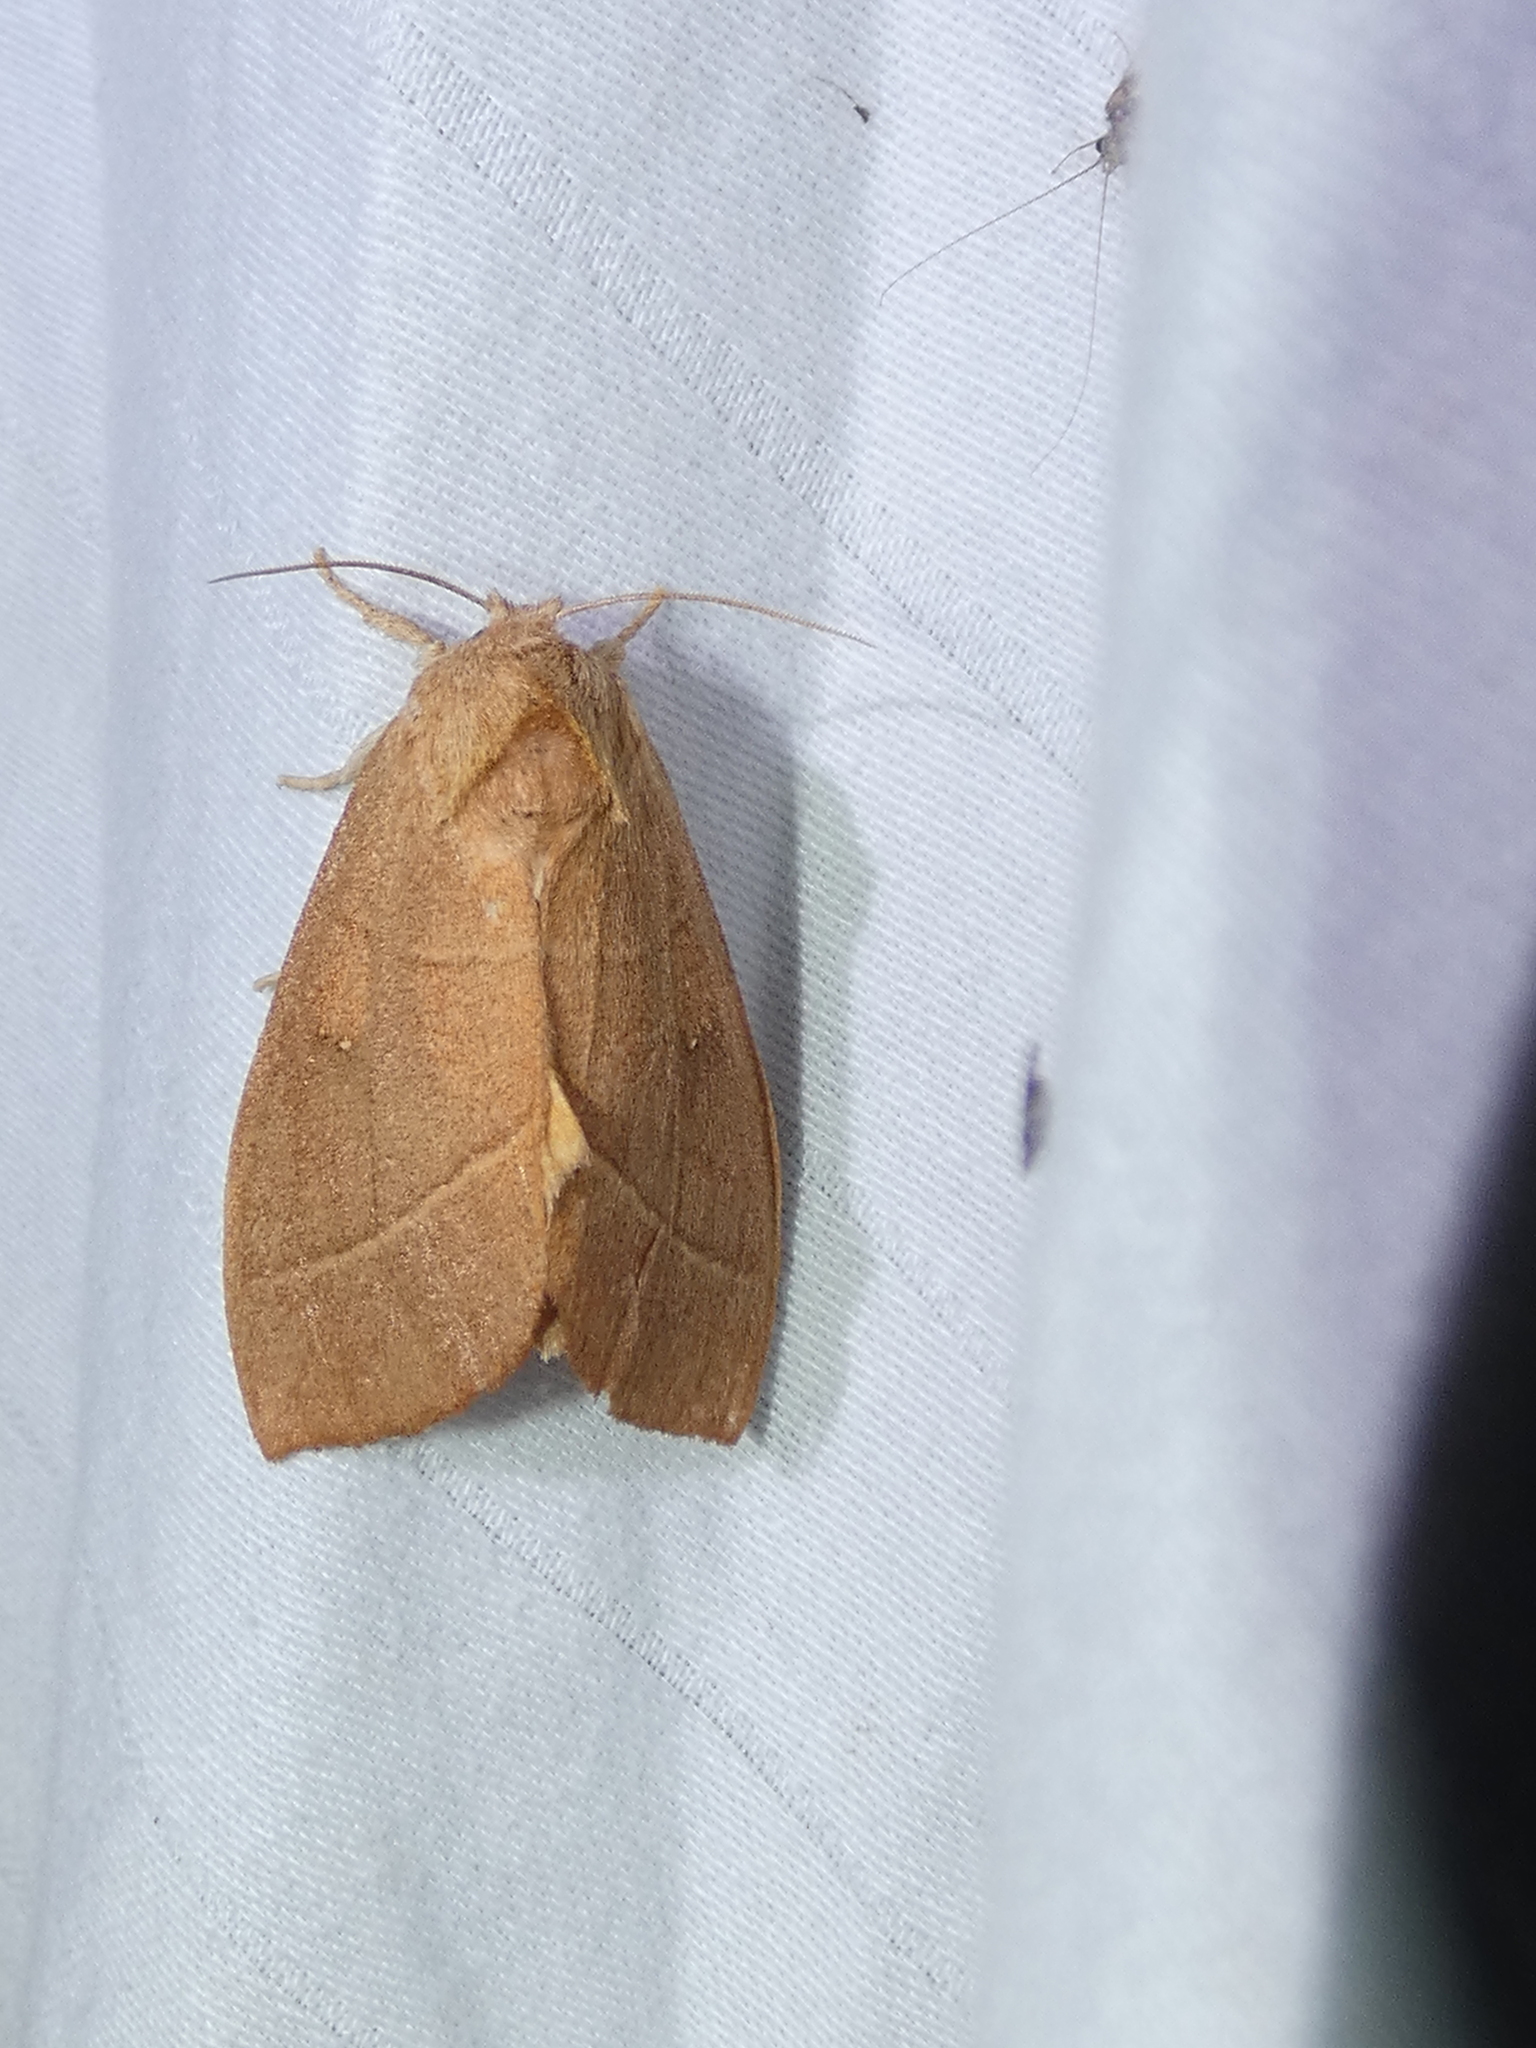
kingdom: Animalia
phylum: Arthropoda
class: Insecta
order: Lepidoptera
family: Notodontidae
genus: Nadata
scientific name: Nadata gibbosa
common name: White-dotted prominent
